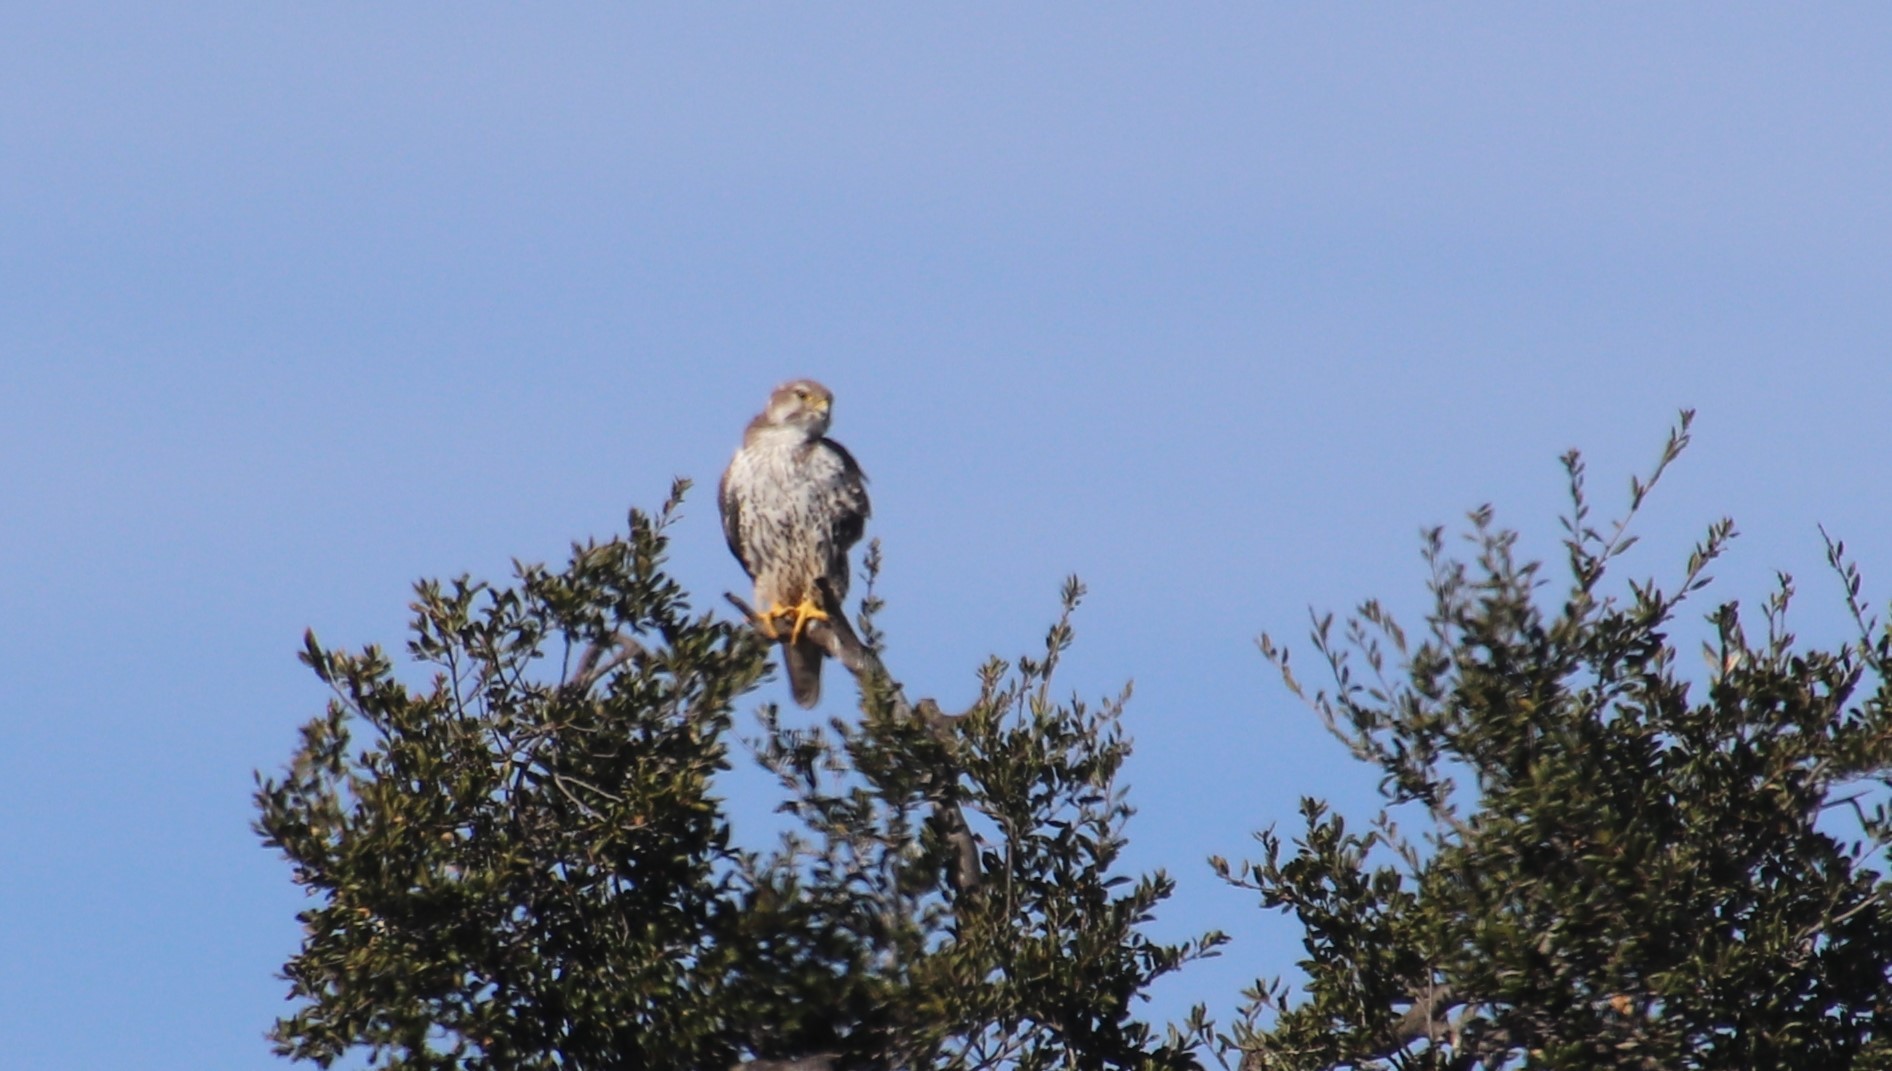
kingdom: Animalia
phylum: Chordata
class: Aves
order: Falconiformes
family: Falconidae
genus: Falco
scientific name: Falco mexicanus
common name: Prairie falcon
